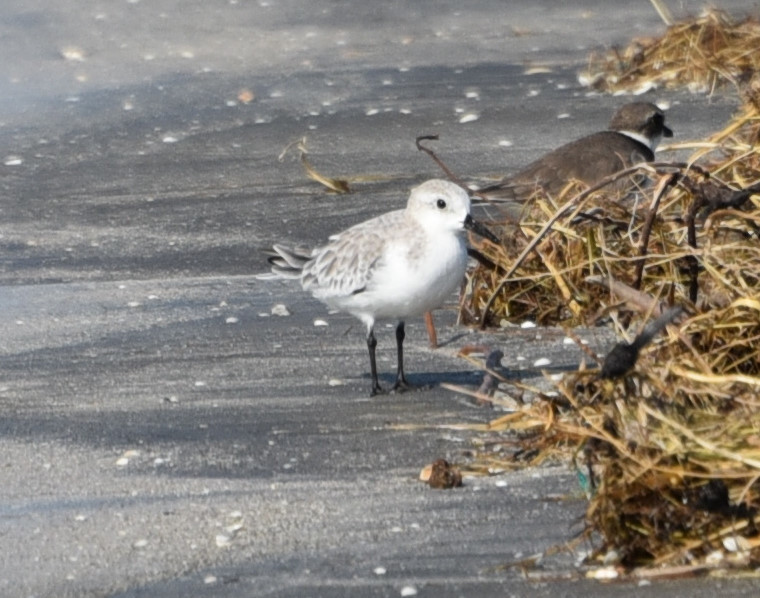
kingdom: Animalia
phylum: Chordata
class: Aves
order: Charadriiformes
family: Scolopacidae
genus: Calidris
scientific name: Calidris alba
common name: Sanderling
